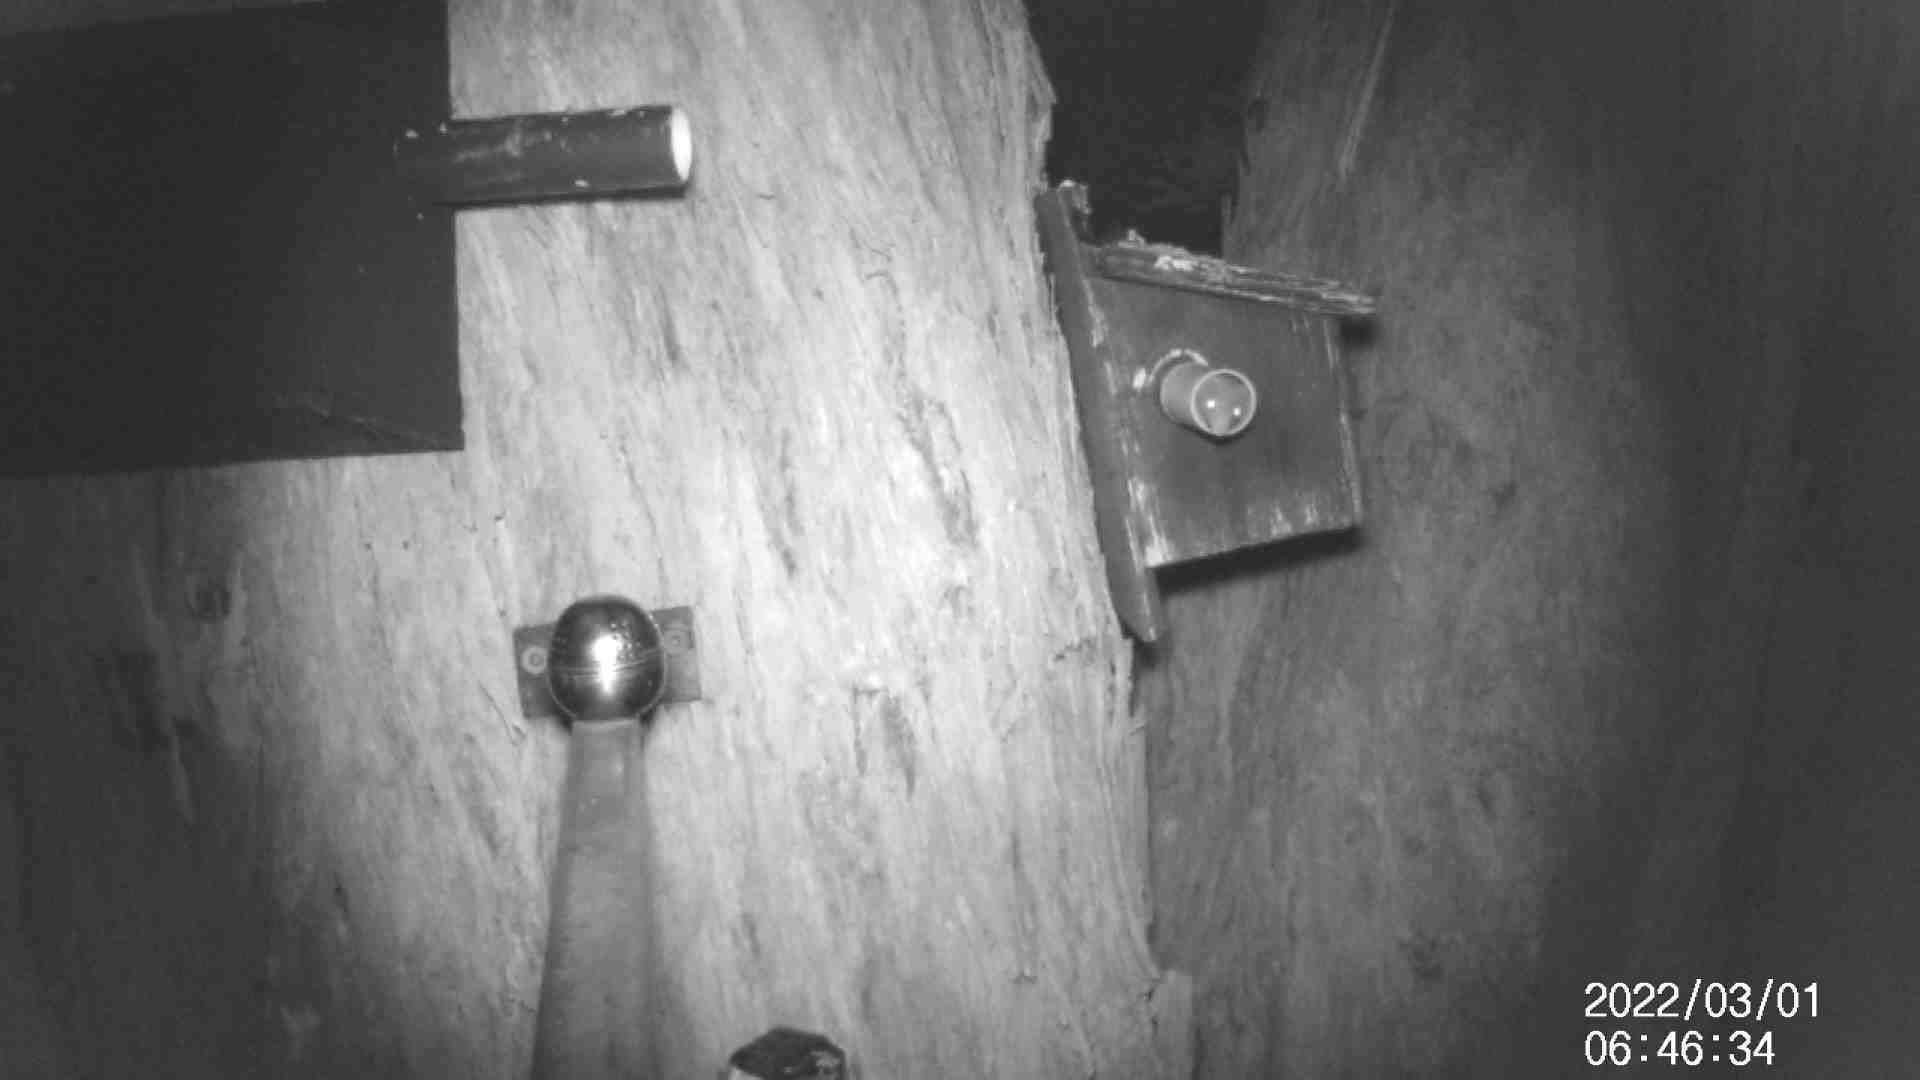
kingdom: Animalia
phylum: Chordata
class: Mammalia
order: Dasyuromorphia
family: Dasyuridae
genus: Antechinus
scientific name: Antechinus agilis
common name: Agile antechinus
